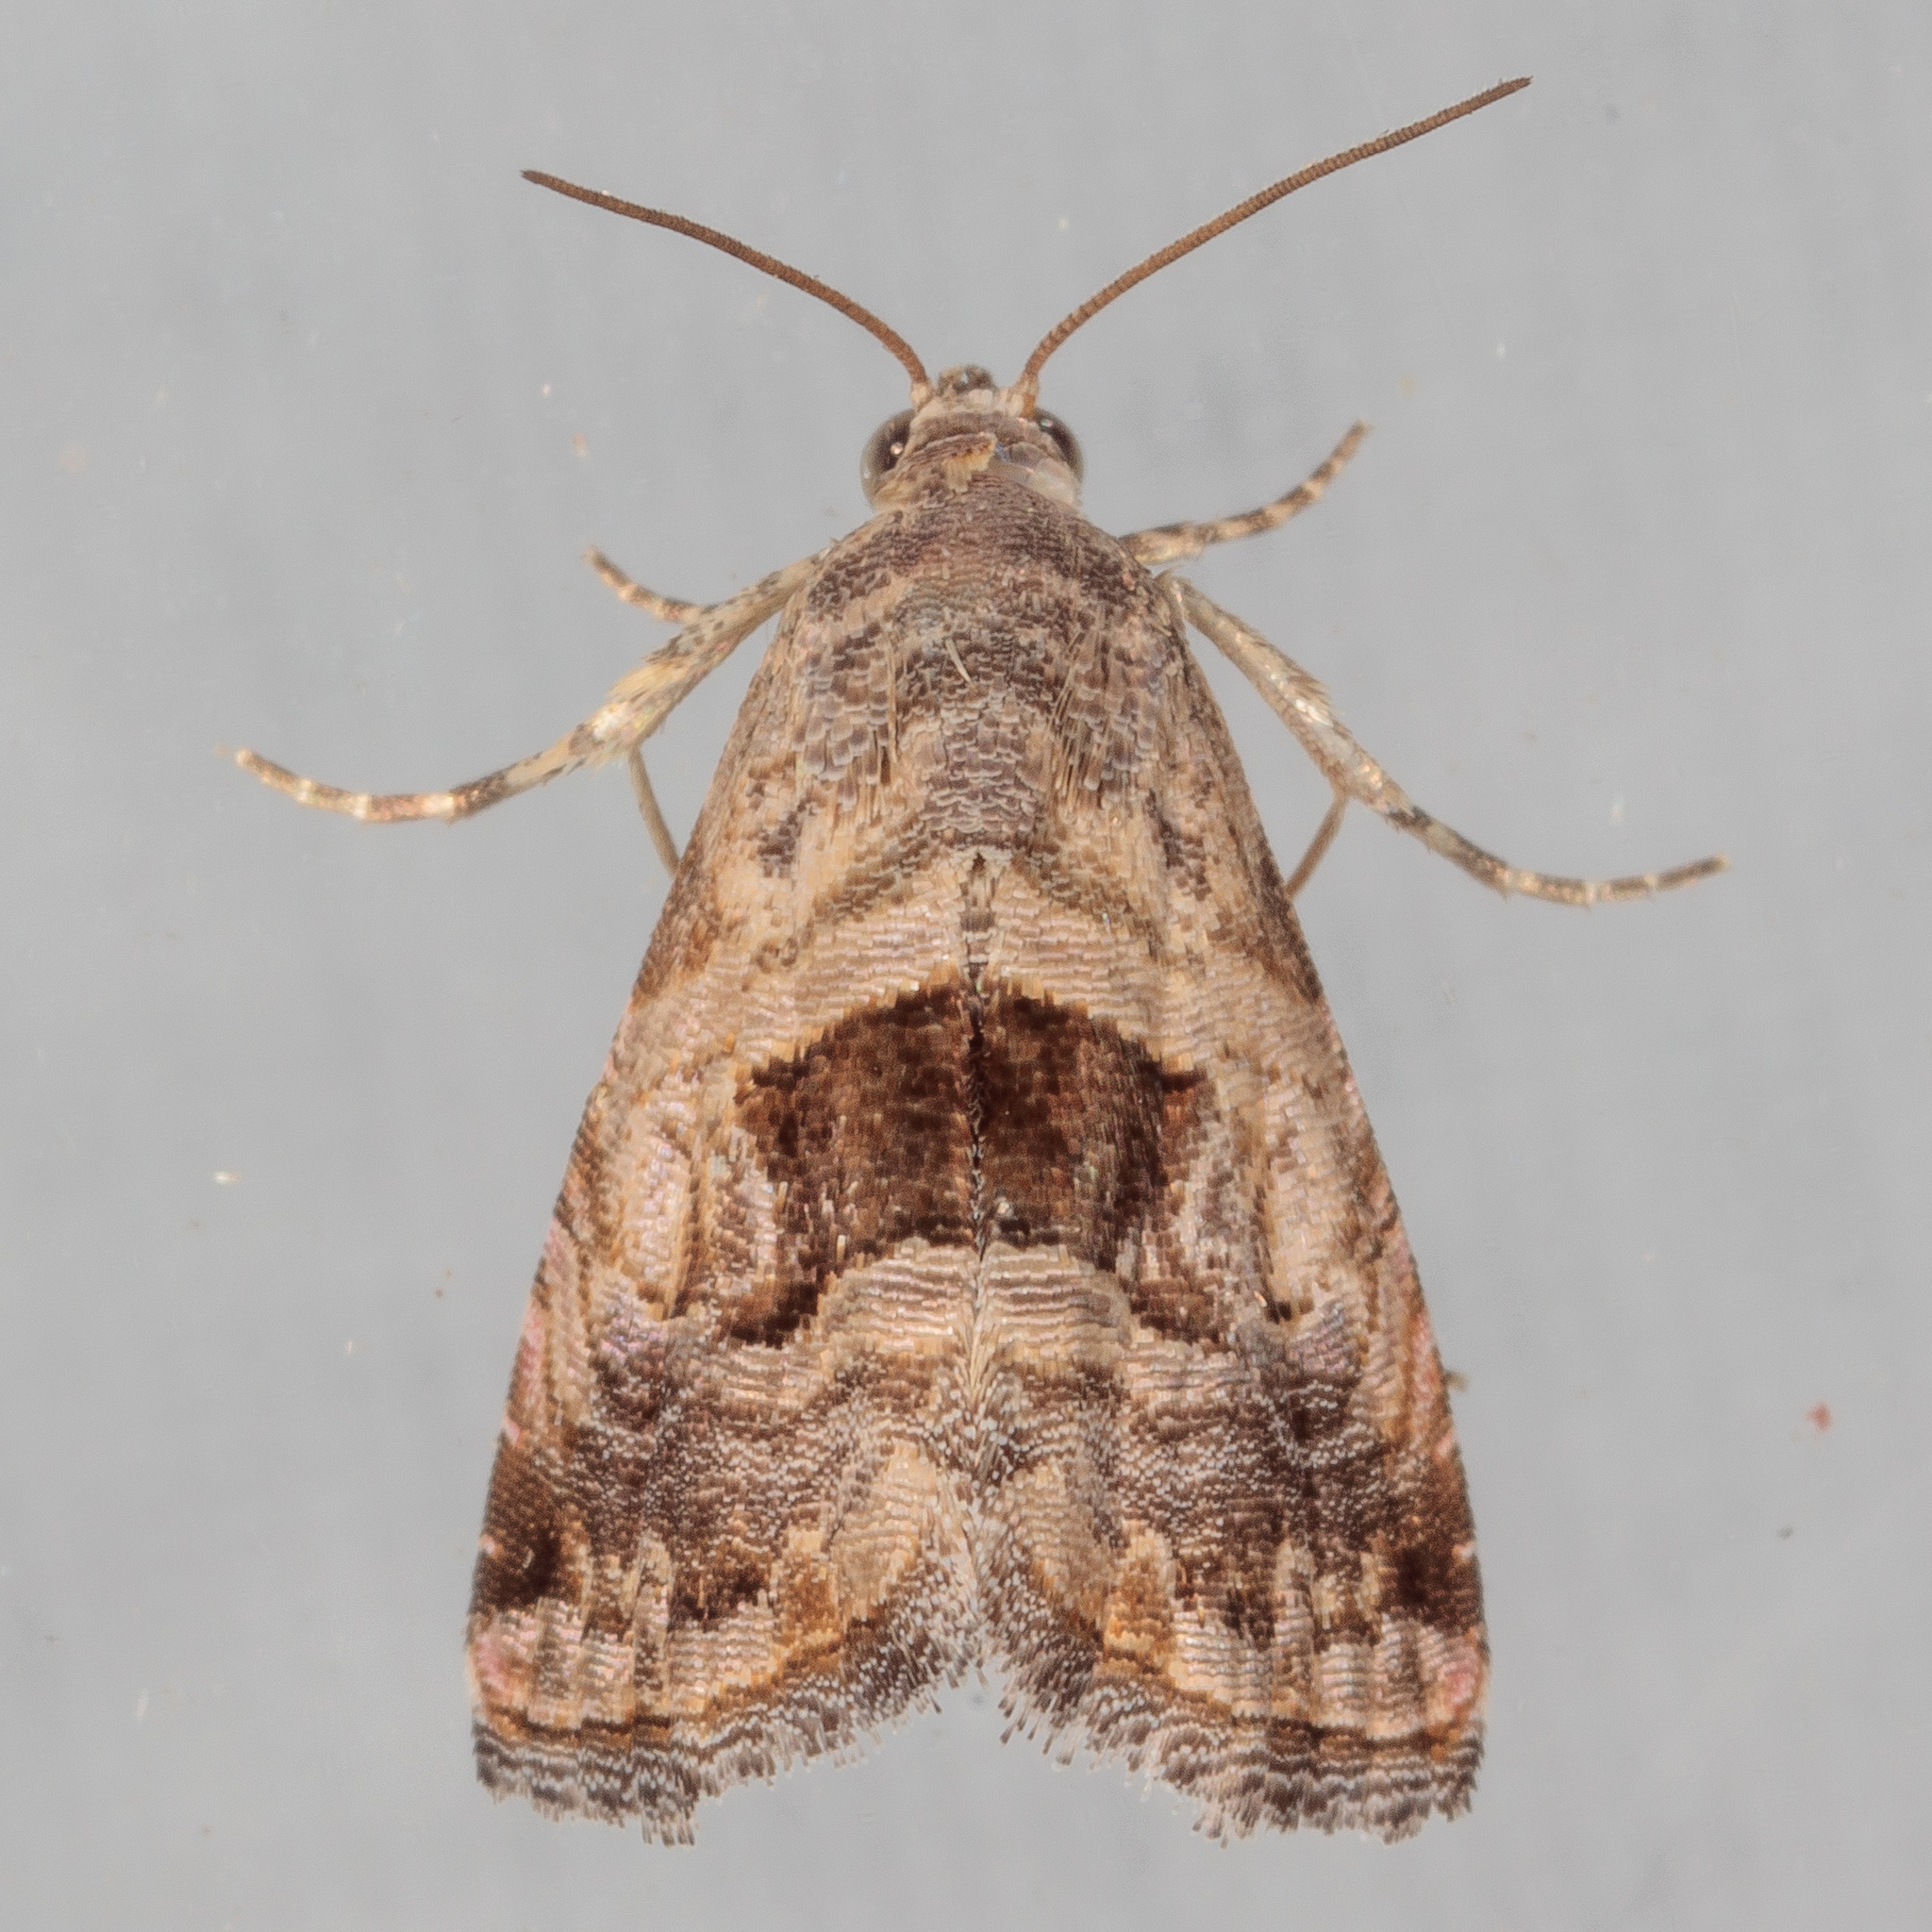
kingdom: Animalia
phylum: Arthropoda
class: Insecta
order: Lepidoptera
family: Noctuidae
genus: Tripudia
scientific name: Tripudia quadrifera
